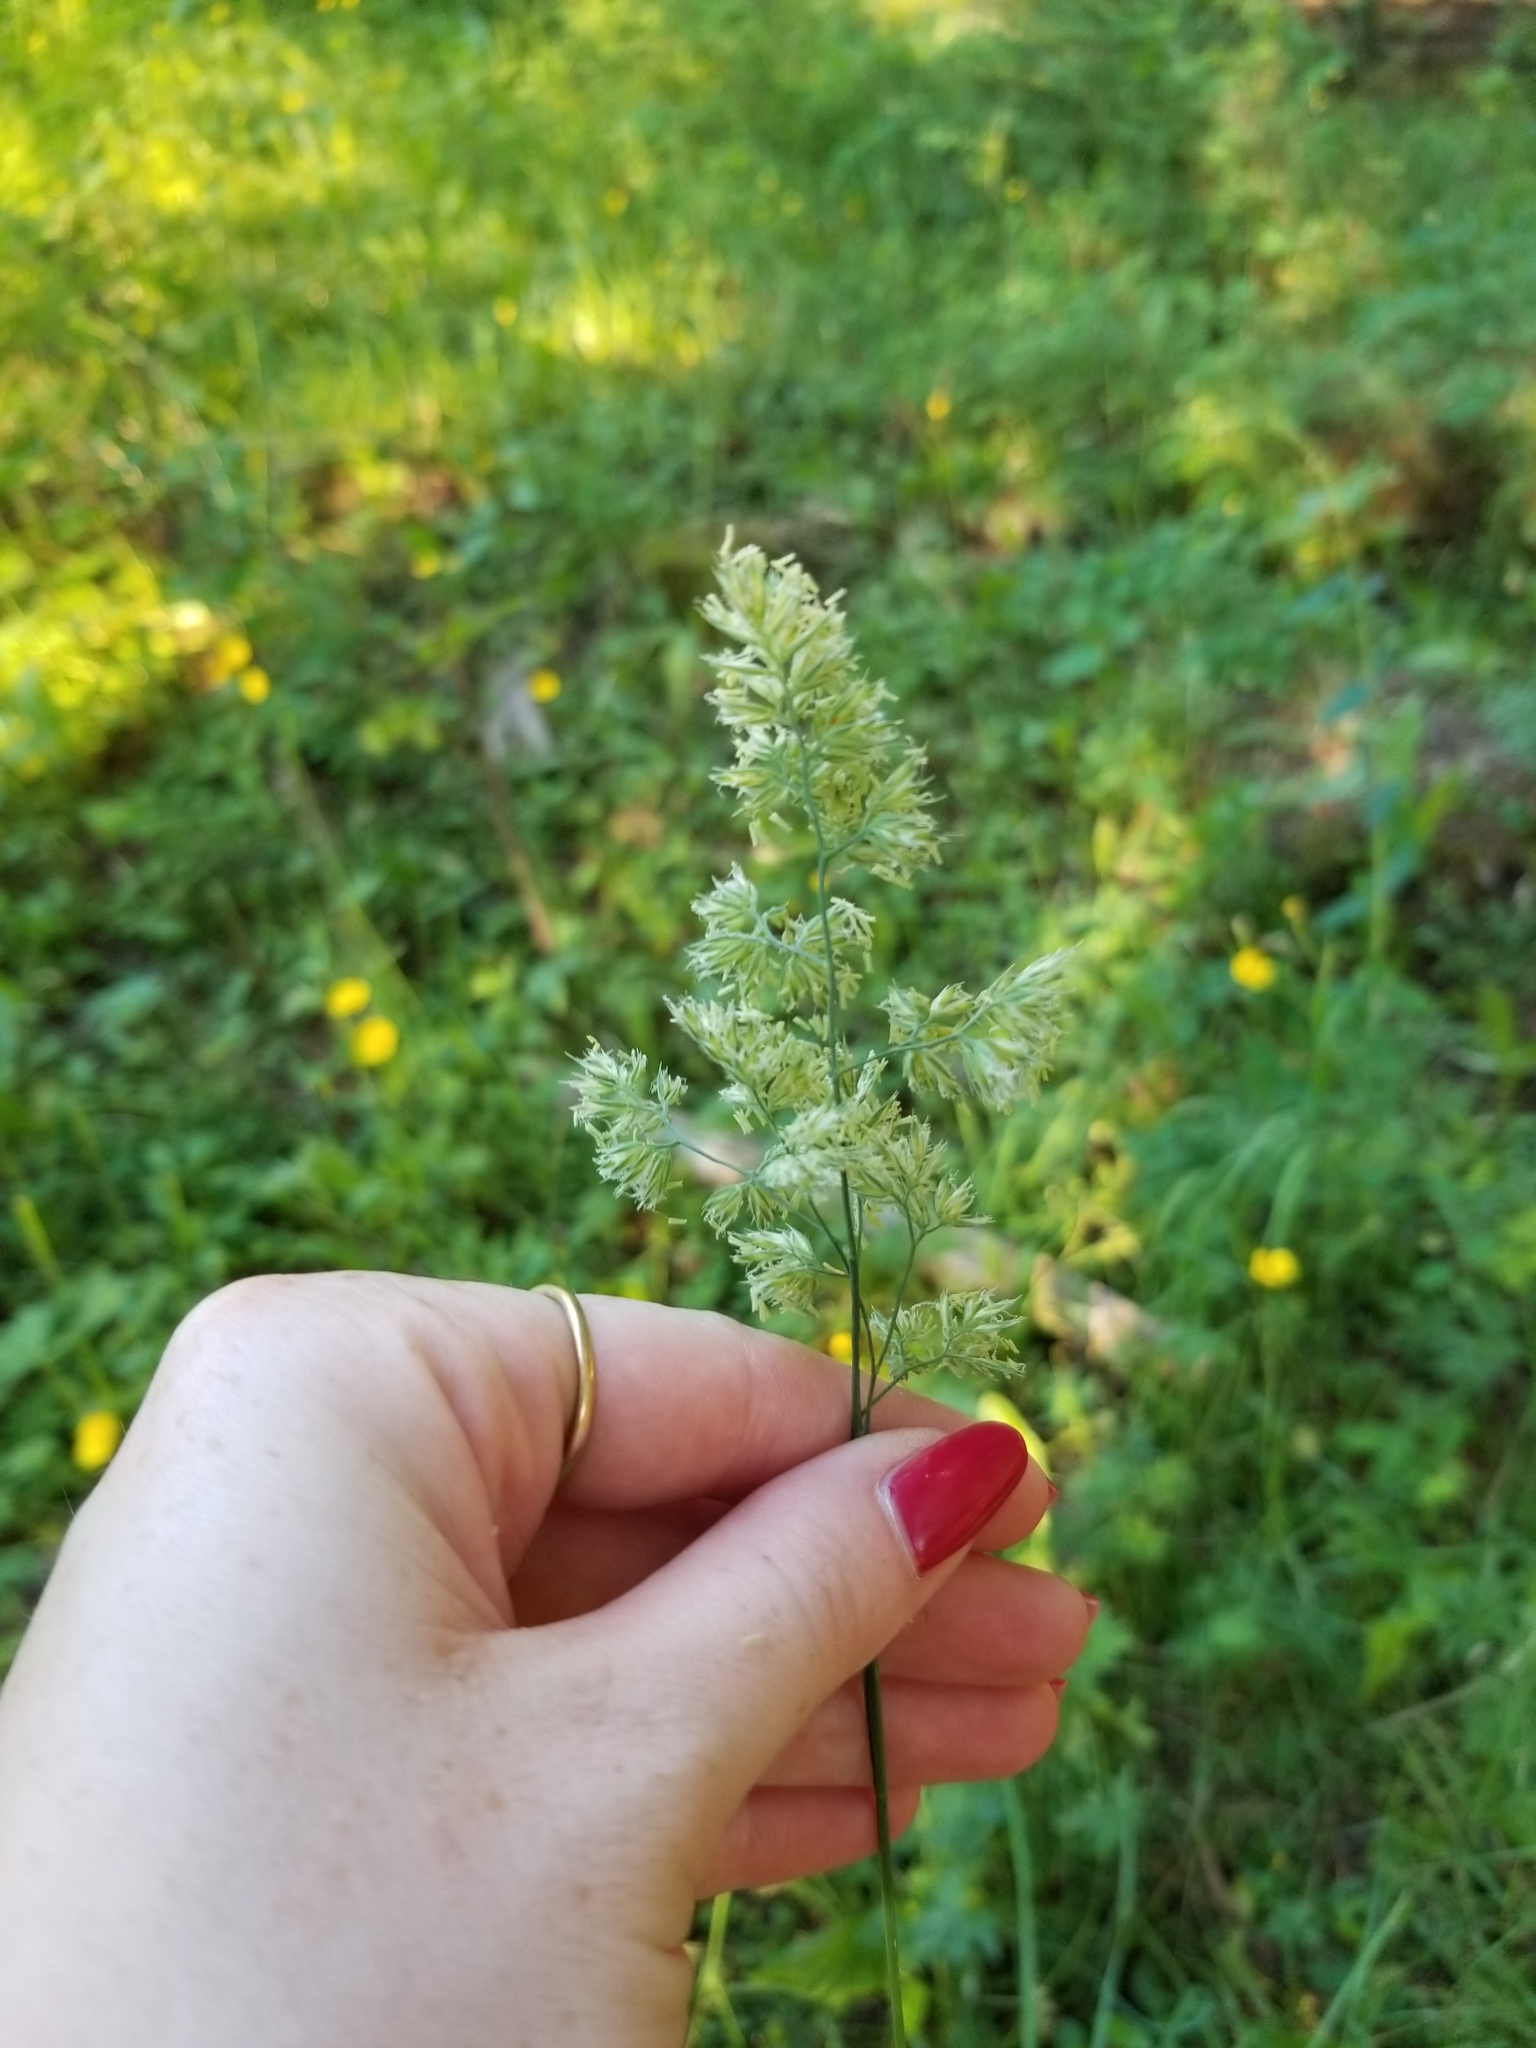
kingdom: Plantae
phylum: Tracheophyta
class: Liliopsida
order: Poales
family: Poaceae
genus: Dactylis
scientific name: Dactylis glomerata
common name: Orchardgrass
